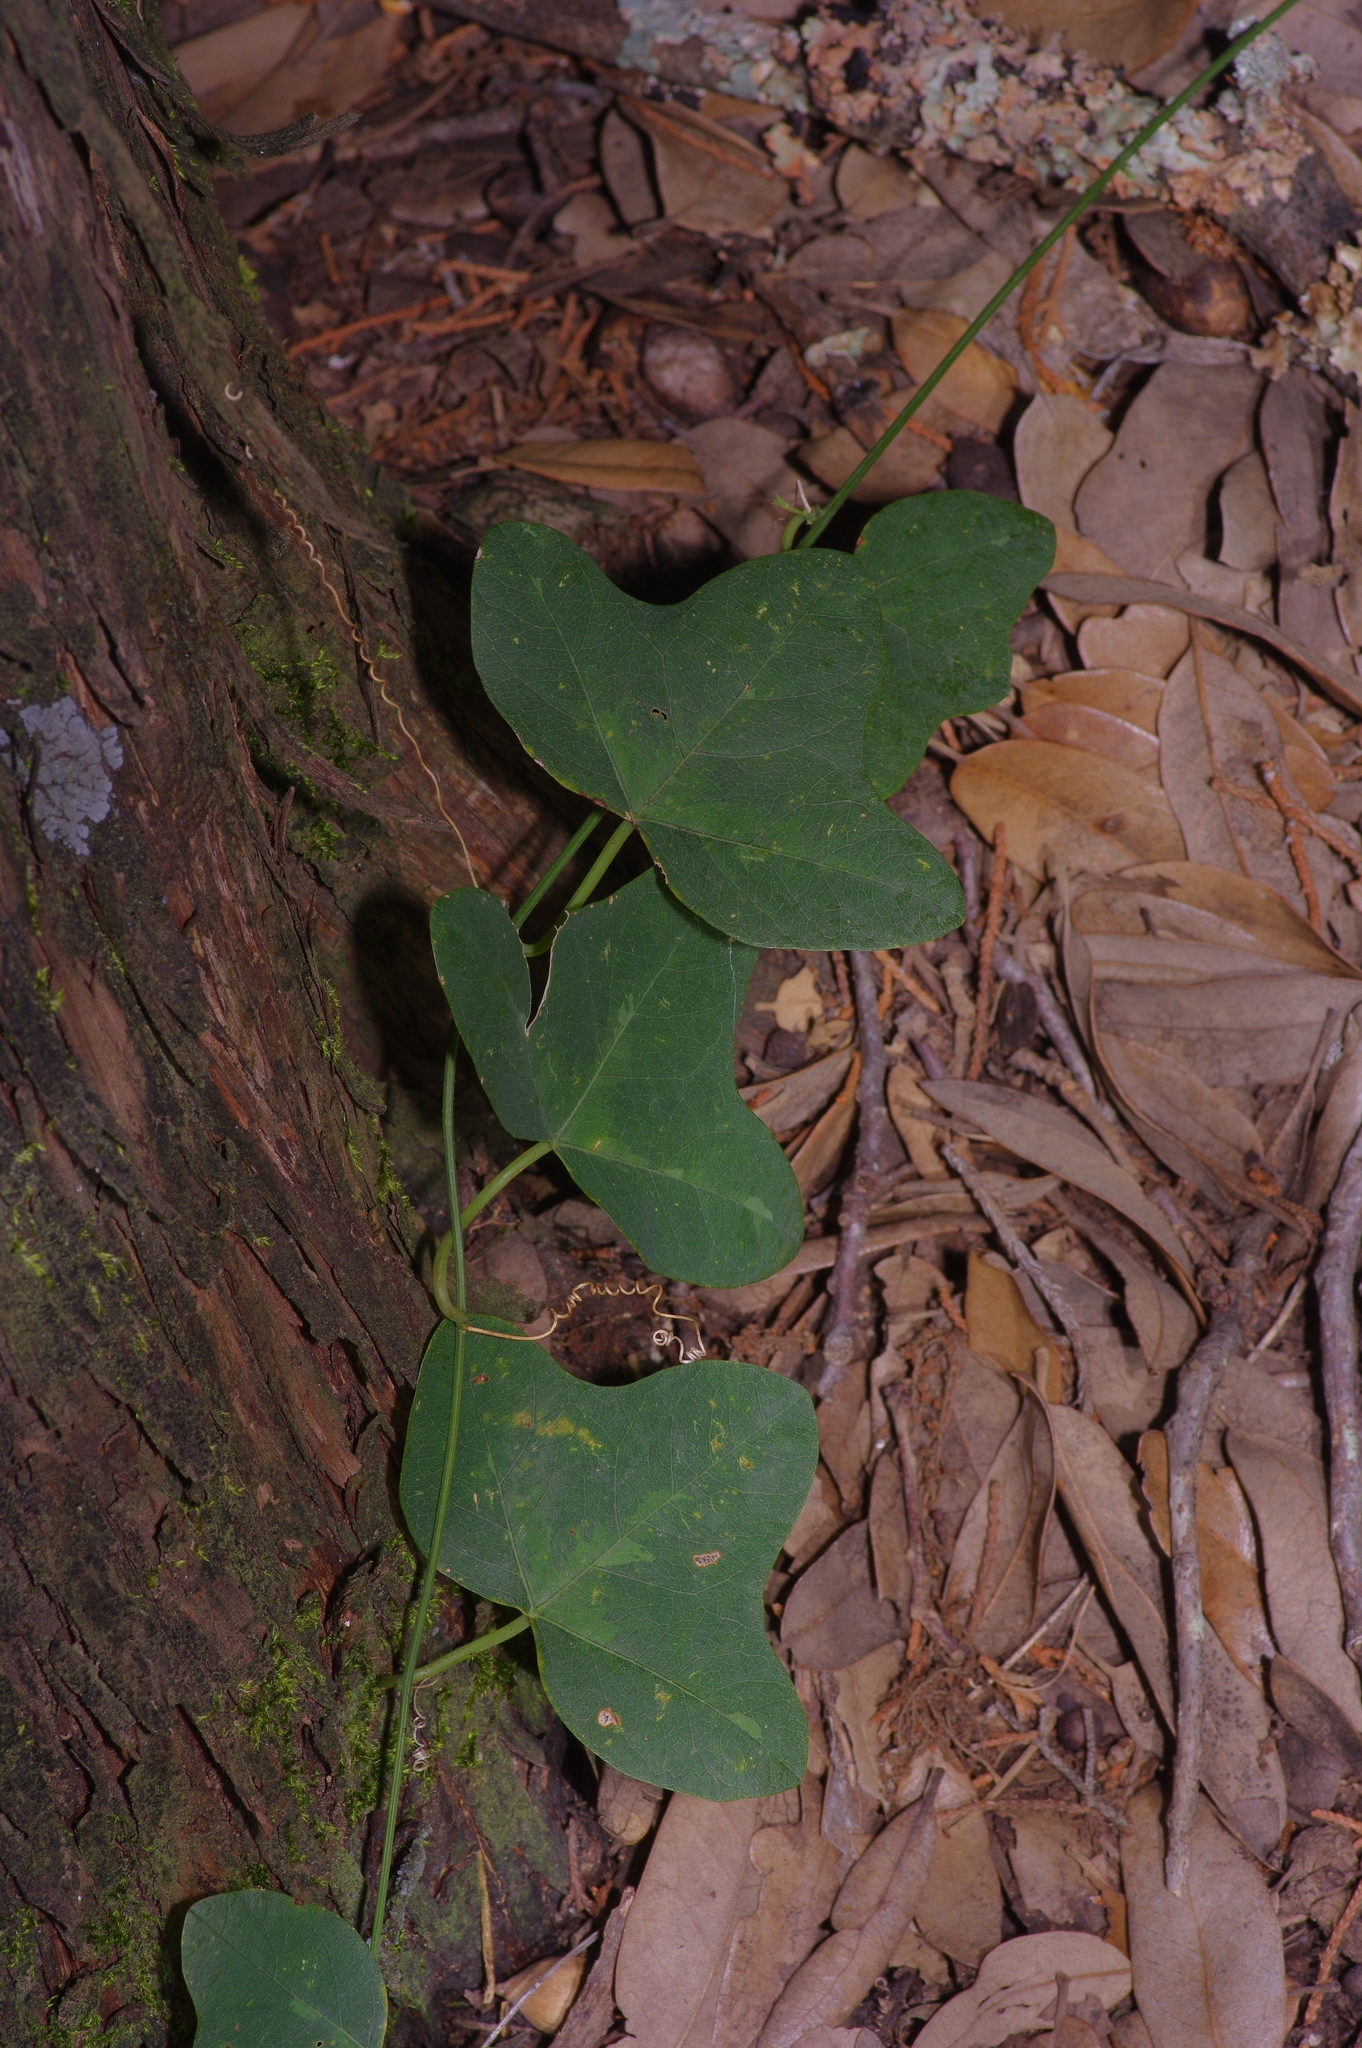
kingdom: Plantae
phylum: Tracheophyta
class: Magnoliopsida
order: Malpighiales
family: Passifloraceae
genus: Passiflora
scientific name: Passiflora lutea
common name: Yellow passionflower
